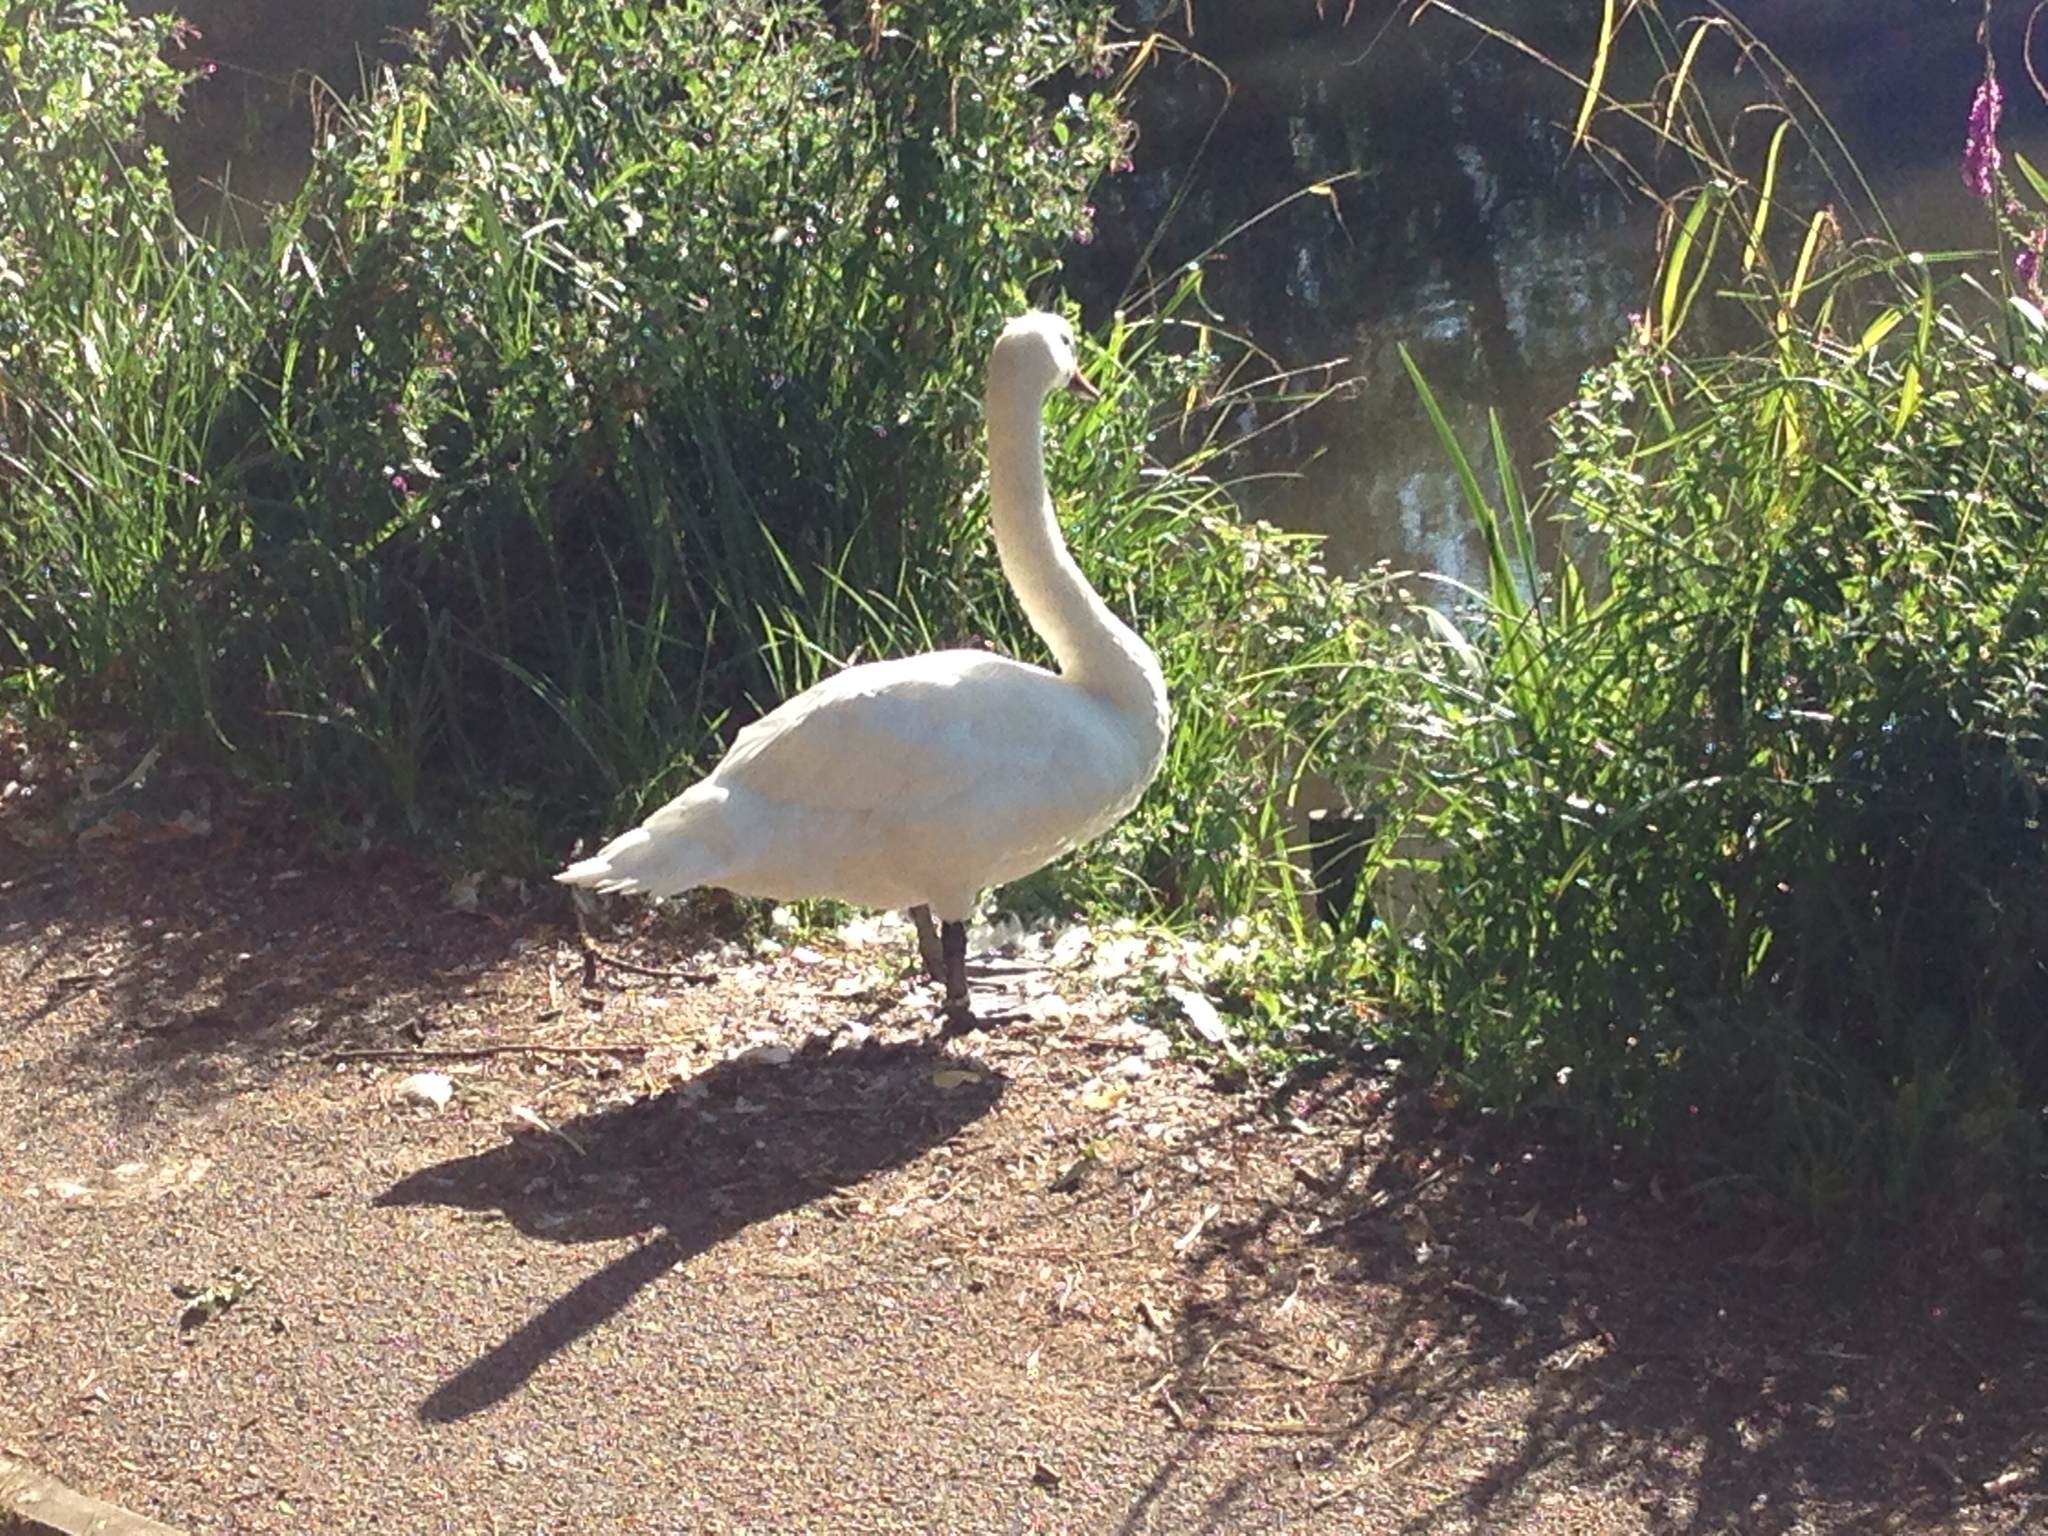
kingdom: Animalia
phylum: Chordata
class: Aves
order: Anseriformes
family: Anatidae
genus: Cygnus
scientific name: Cygnus olor
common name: Mute swan
